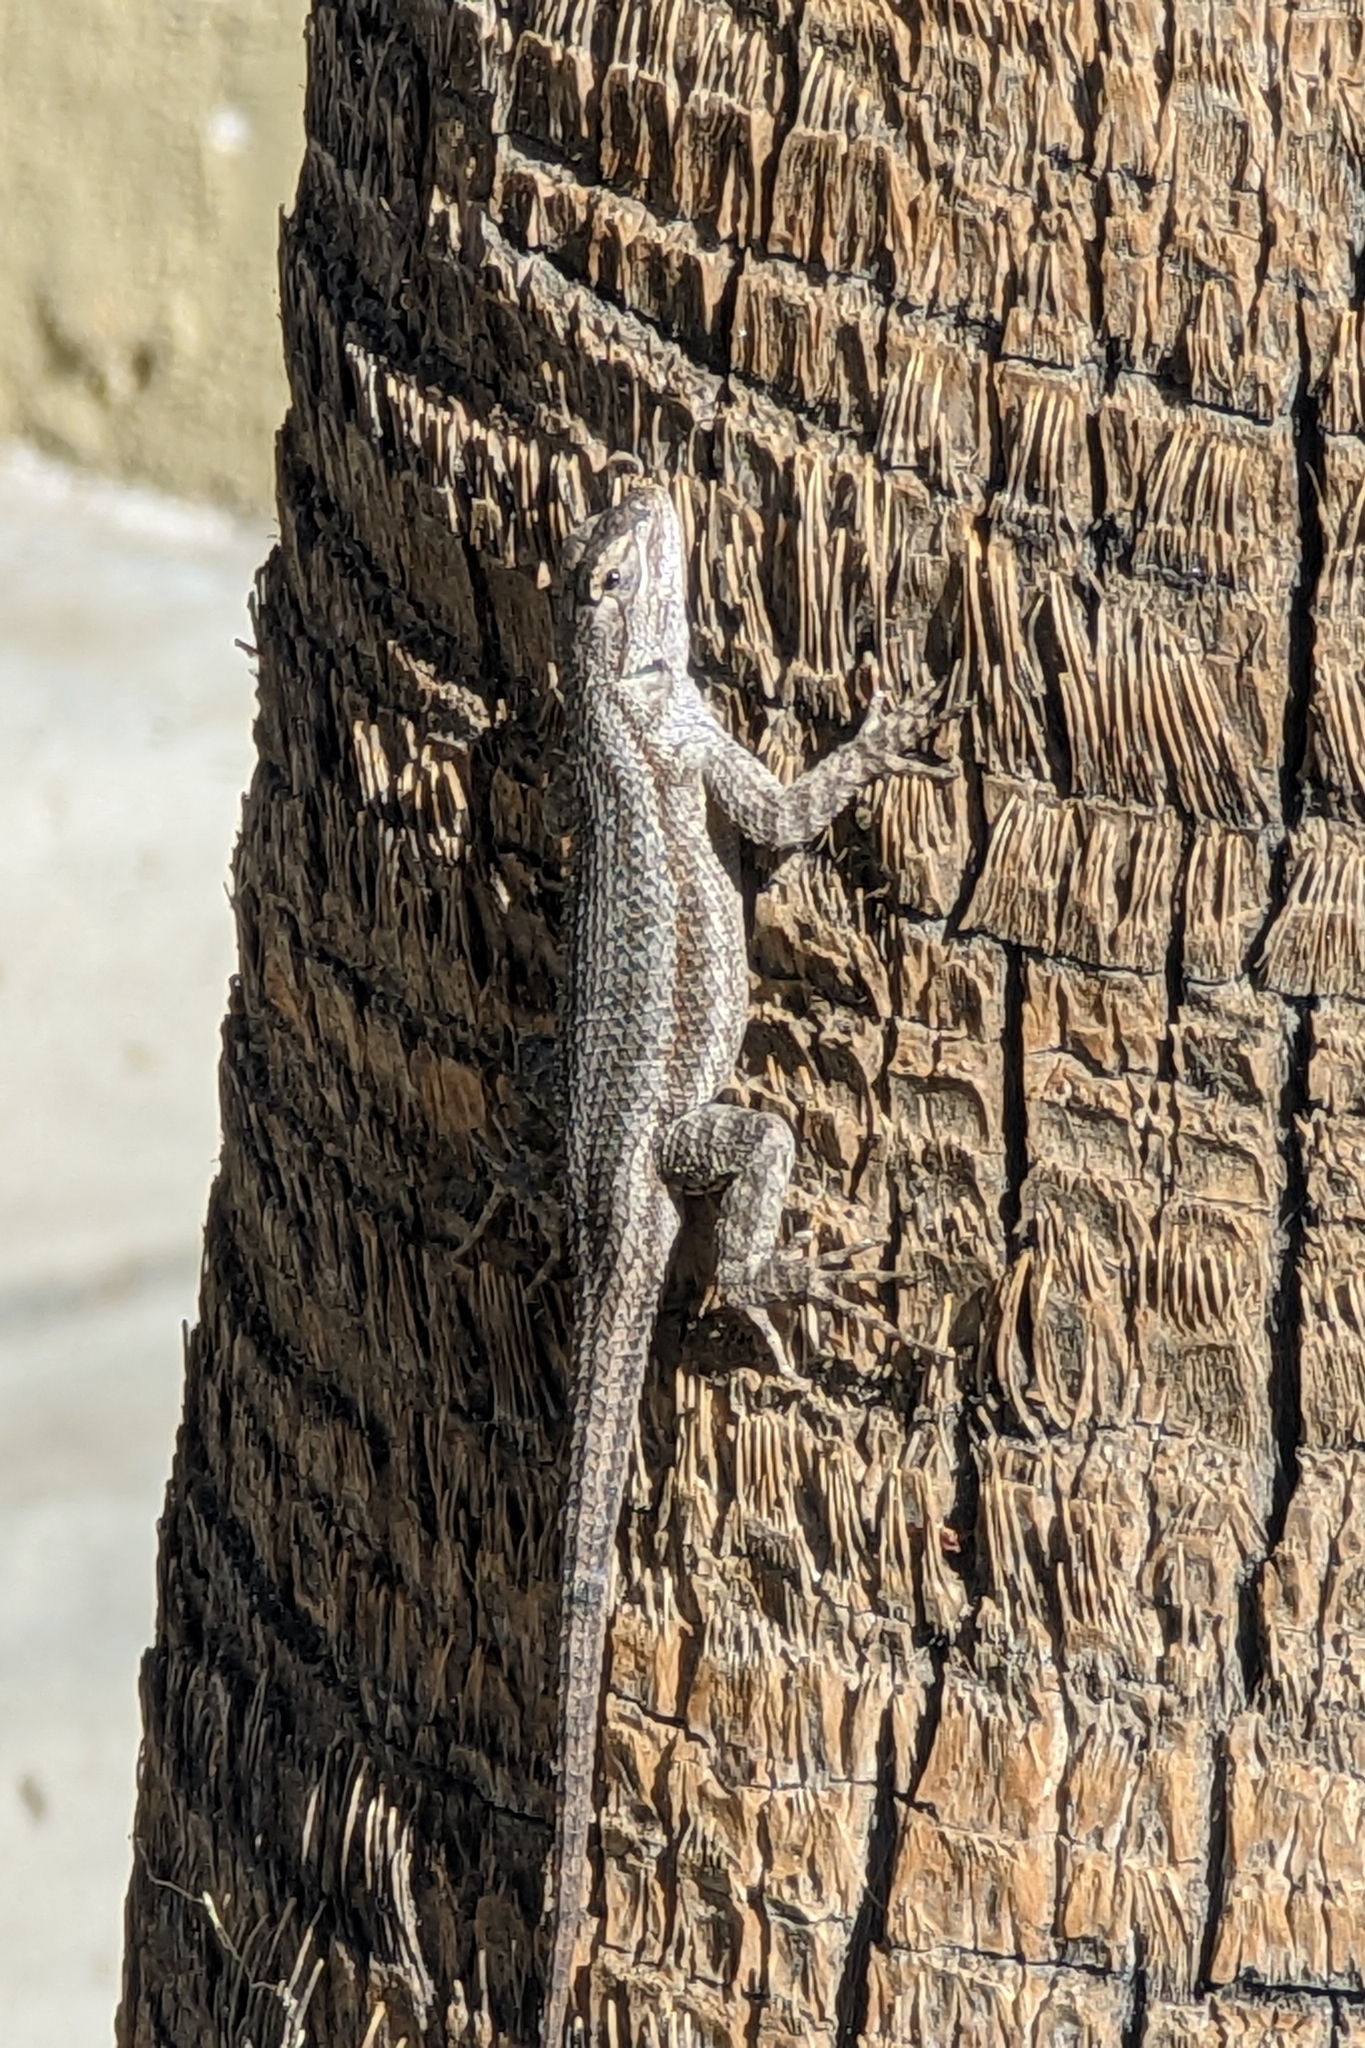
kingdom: Animalia
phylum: Chordata
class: Squamata
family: Phrynosomatidae
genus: Sceloporus
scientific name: Sceloporus occidentalis
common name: Western fence lizard
